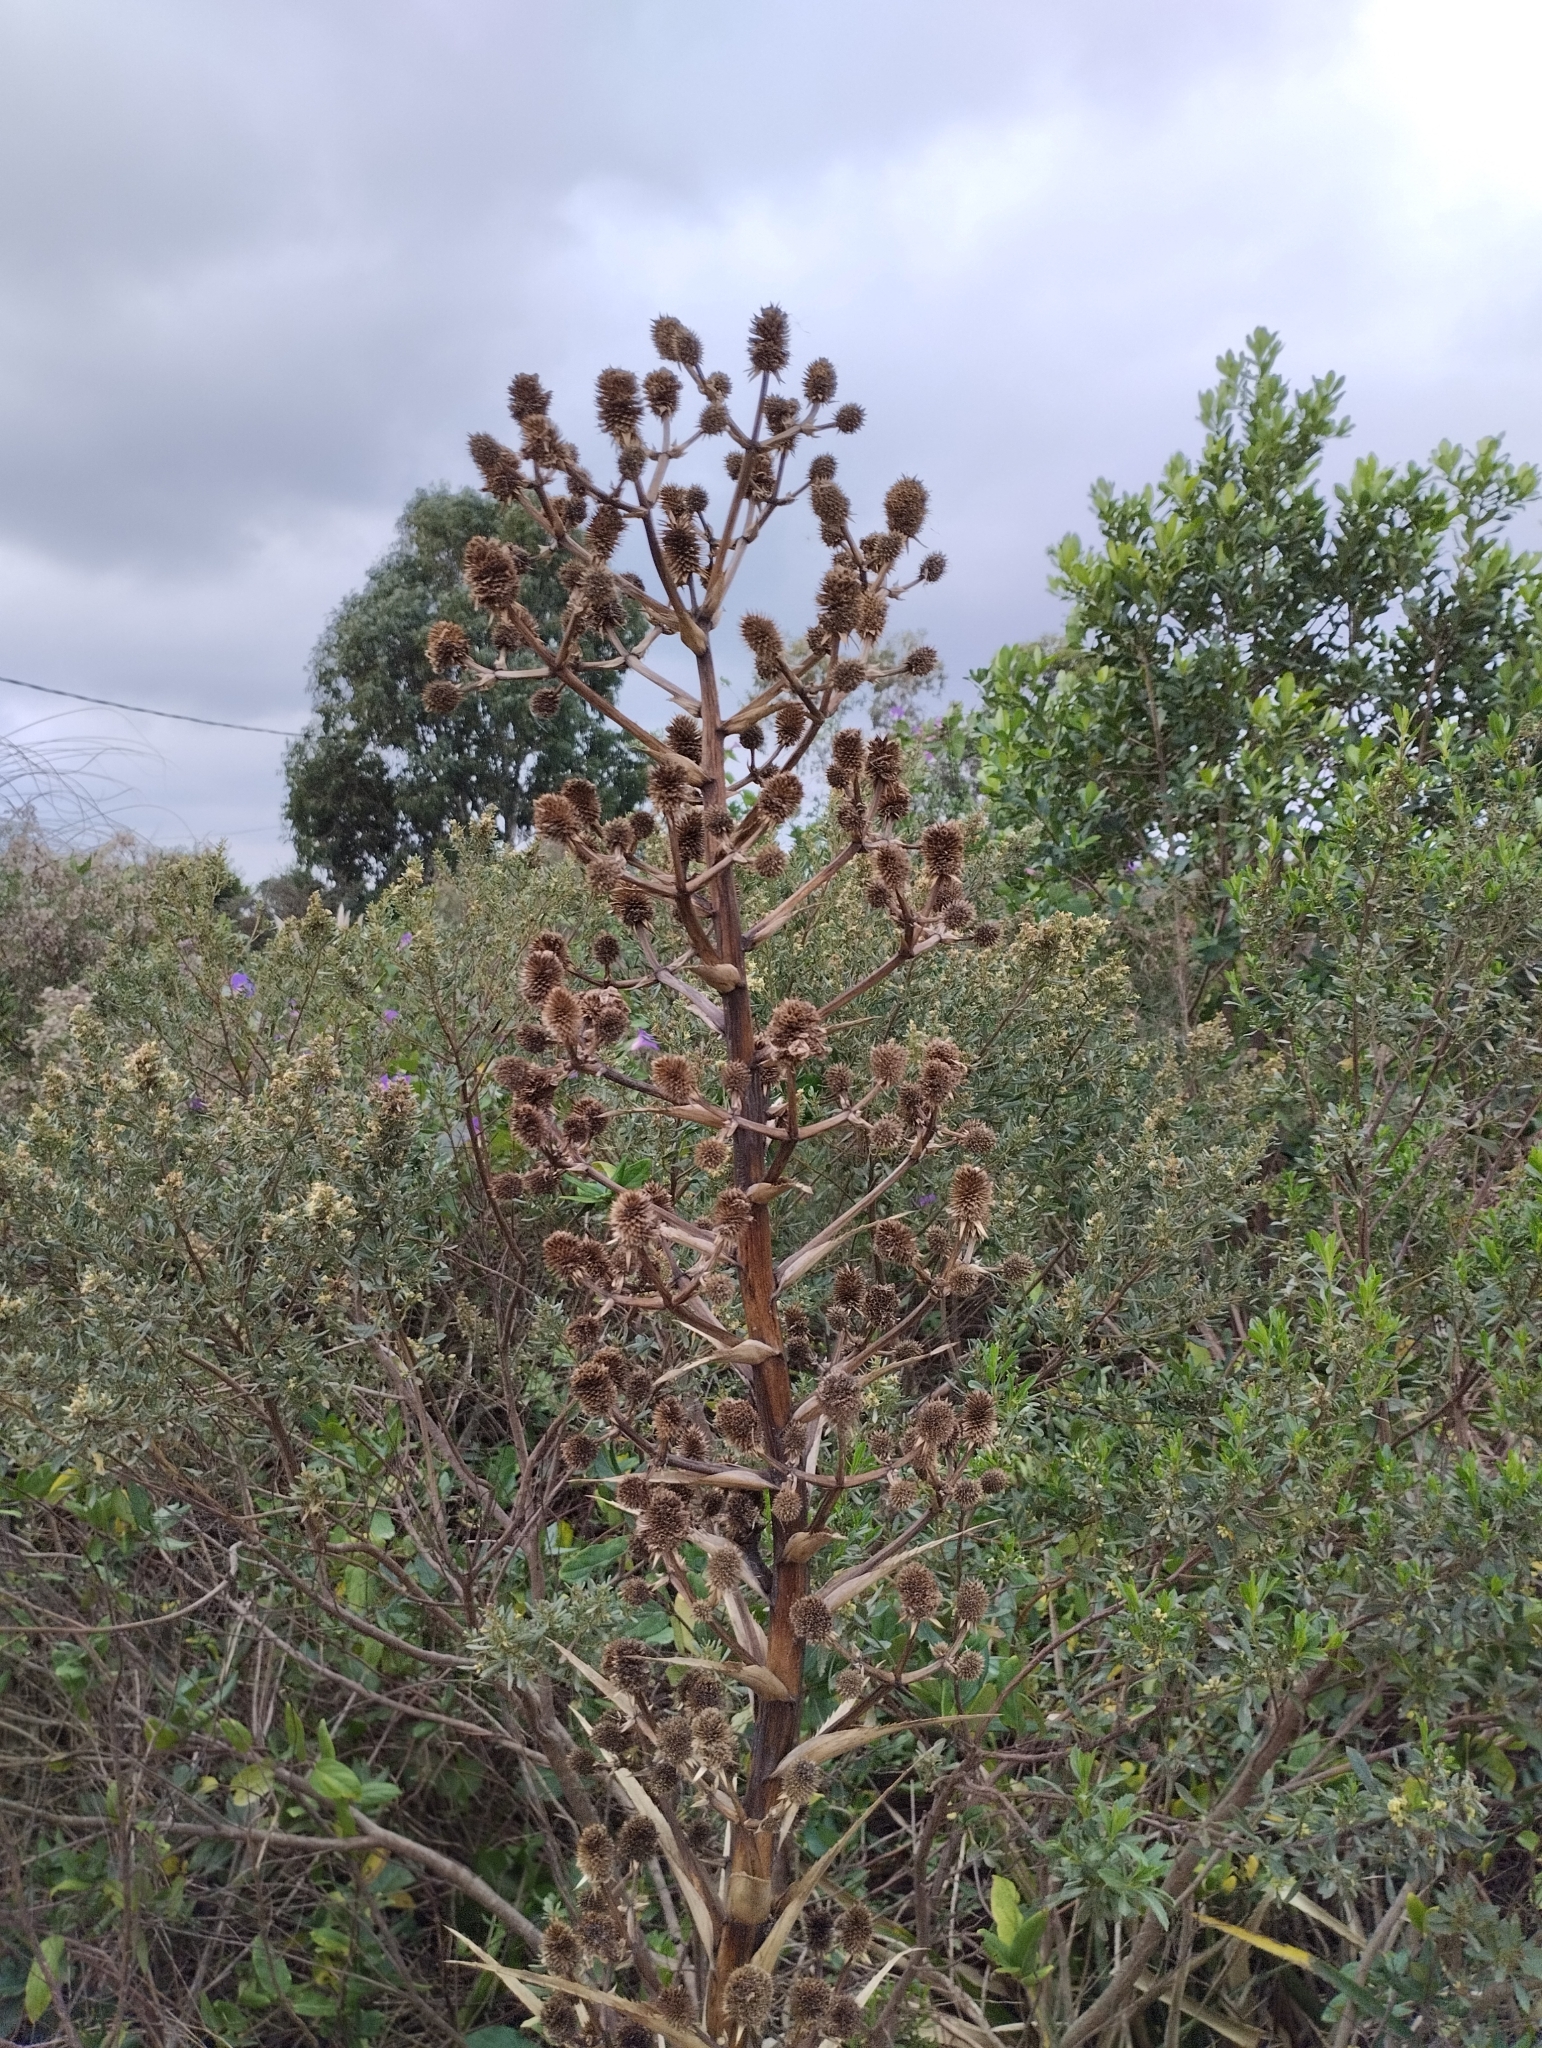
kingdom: Plantae
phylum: Tracheophyta
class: Magnoliopsida
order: Apiales
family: Apiaceae
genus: Eryngium
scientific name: Eryngium eburneum
